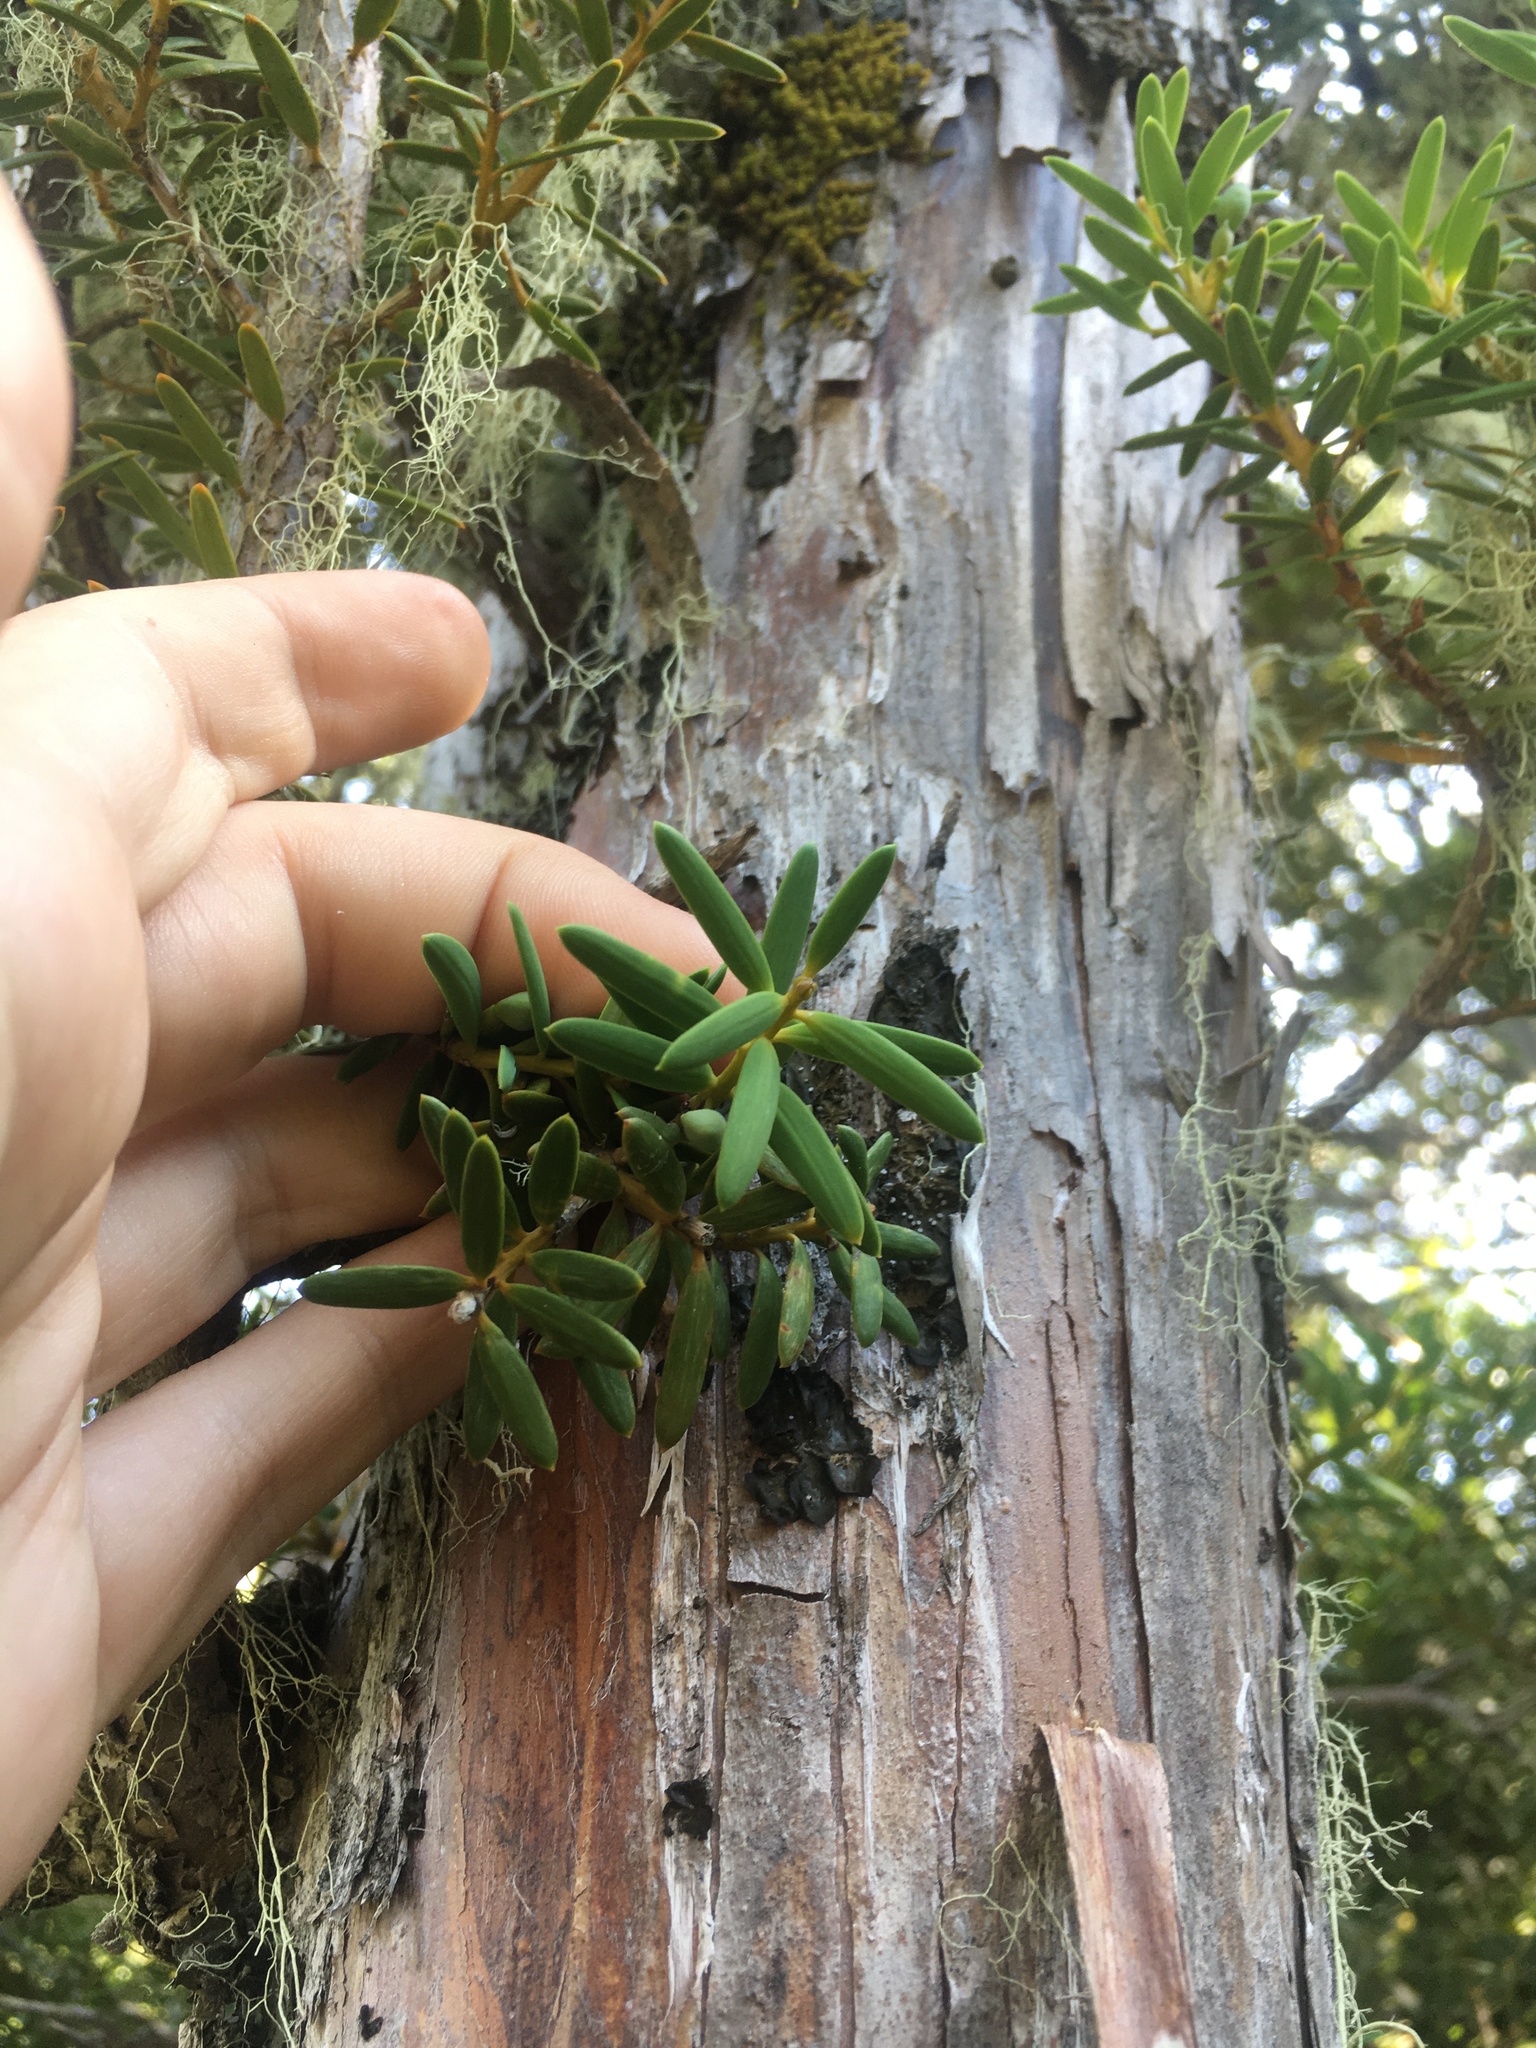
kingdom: Plantae
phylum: Tracheophyta
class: Pinopsida
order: Pinales
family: Podocarpaceae
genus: Podocarpus
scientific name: Podocarpus laetus
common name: Hall's totara
